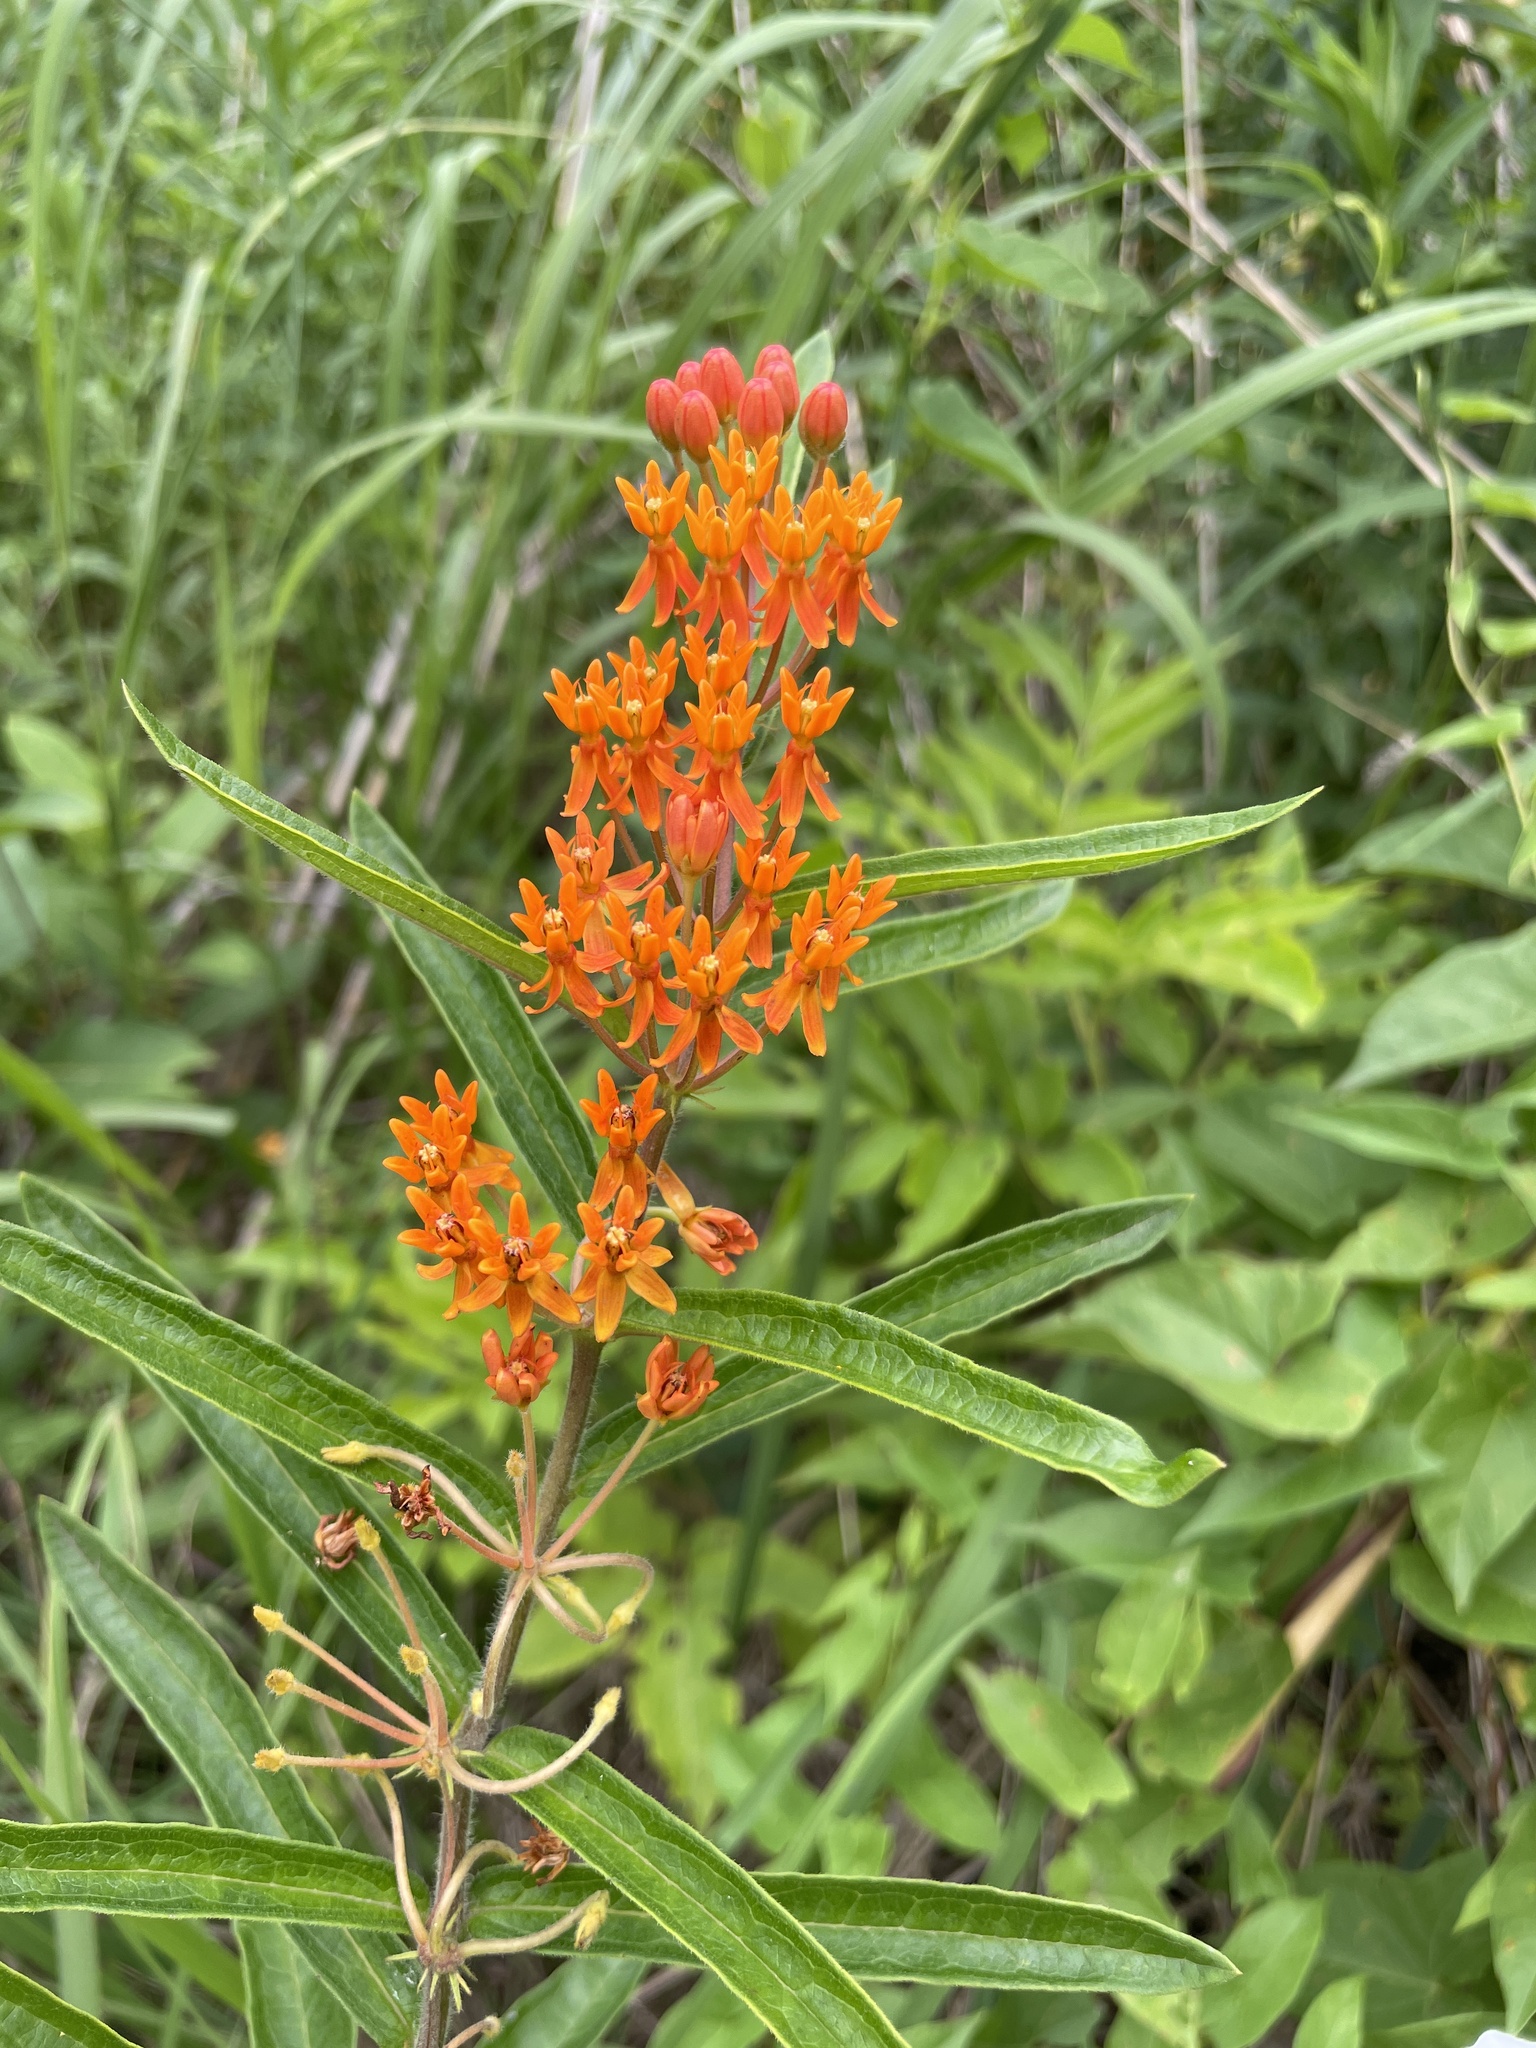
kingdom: Plantae
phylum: Tracheophyta
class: Magnoliopsida
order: Gentianales
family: Apocynaceae
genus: Asclepias
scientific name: Asclepias tuberosa
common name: Butterfly milkweed
